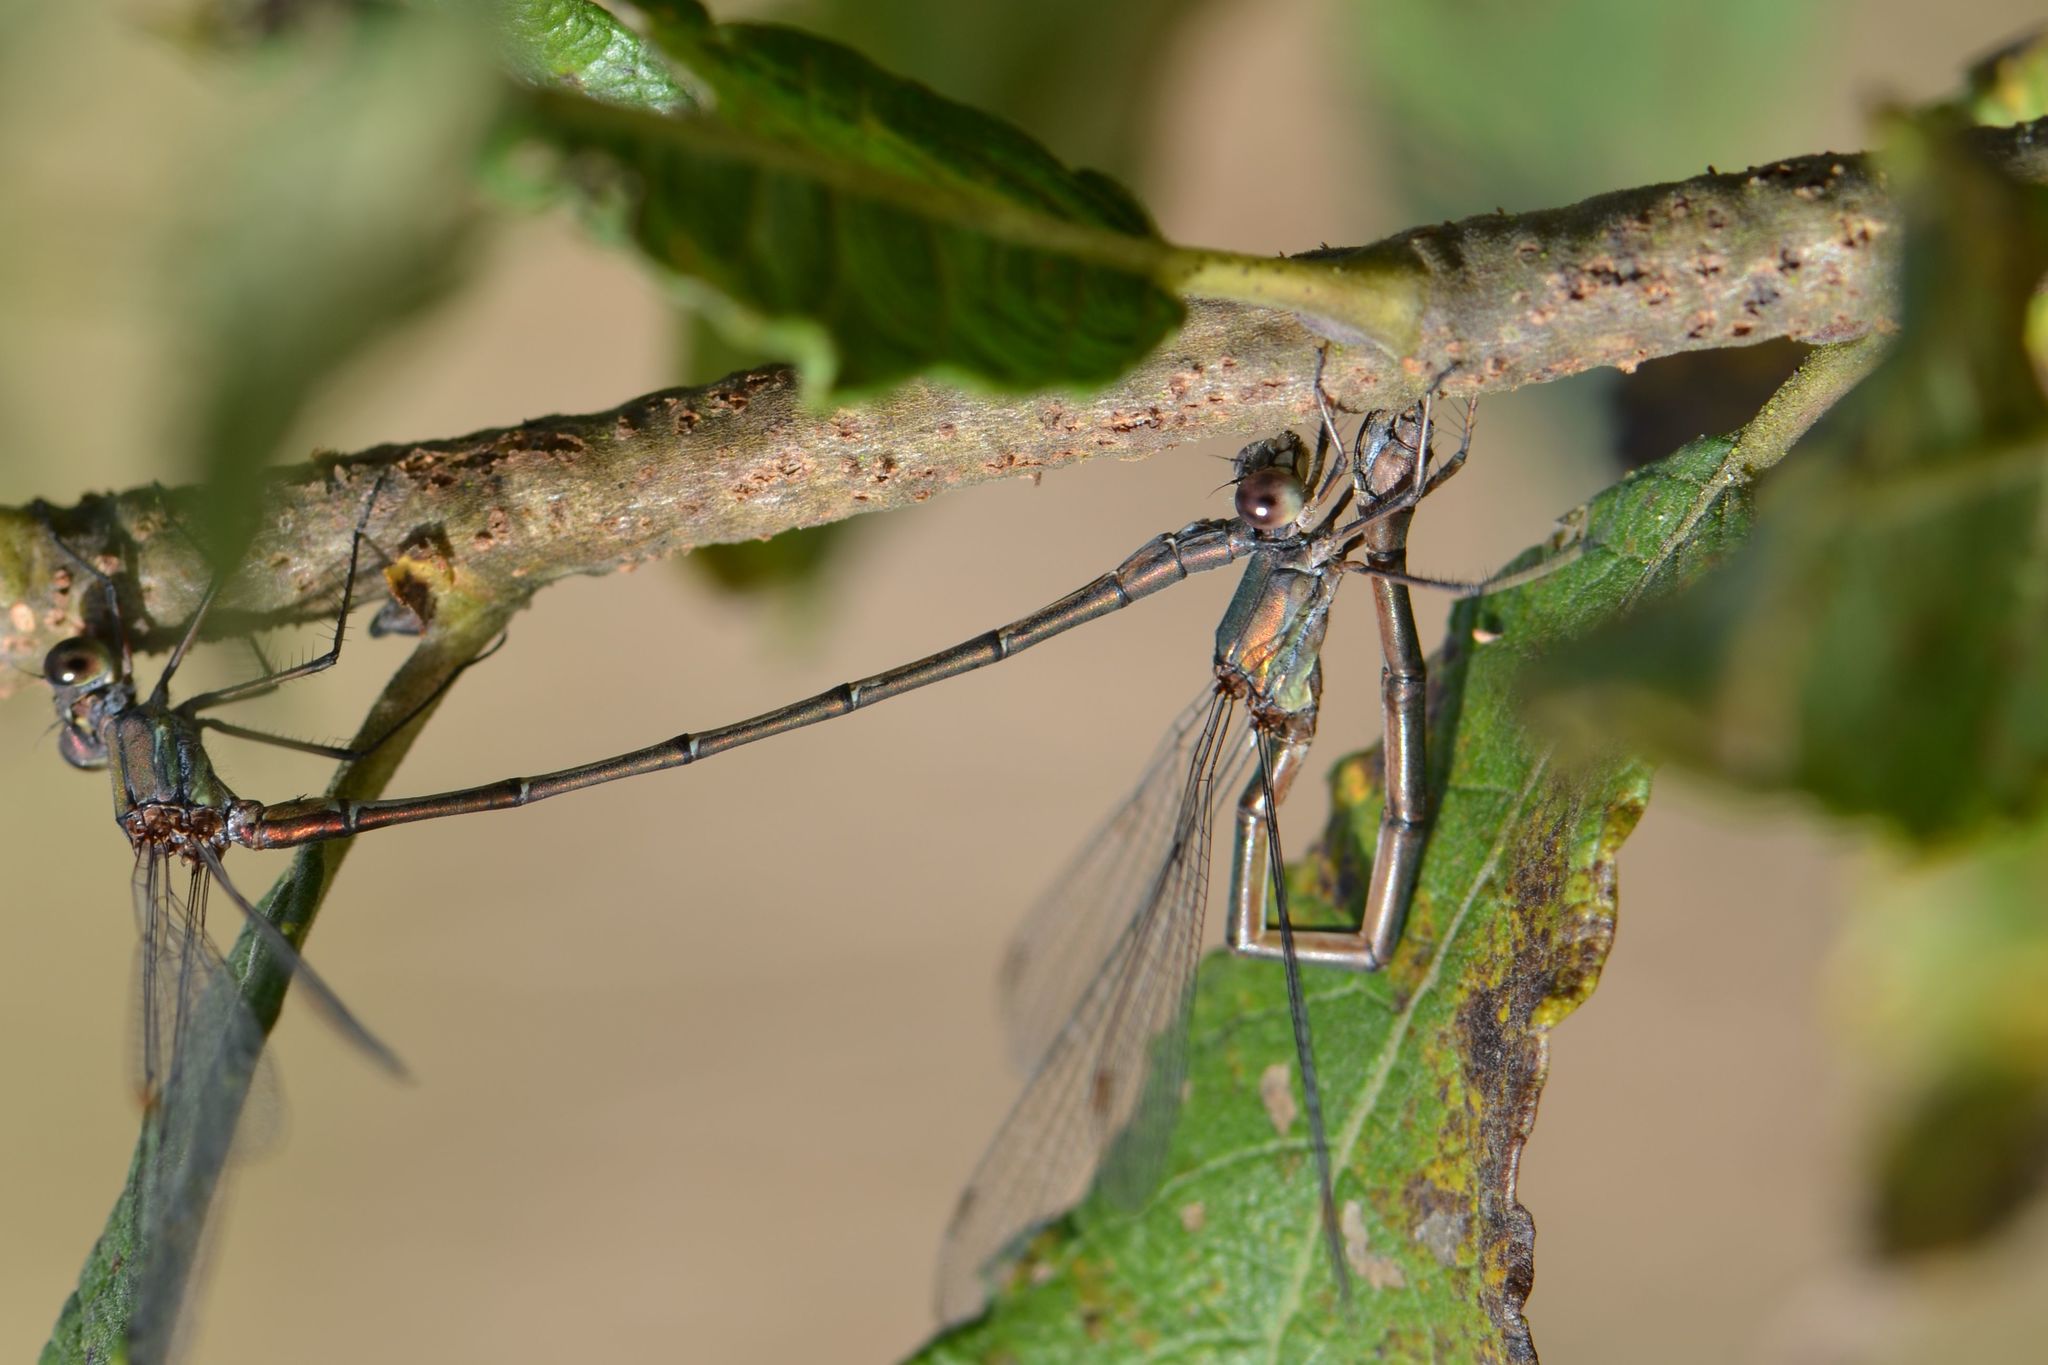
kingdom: Animalia
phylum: Arthropoda
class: Insecta
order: Odonata
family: Lestidae
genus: Chalcolestes
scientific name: Chalcolestes viridis
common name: Green emerald damselfly
